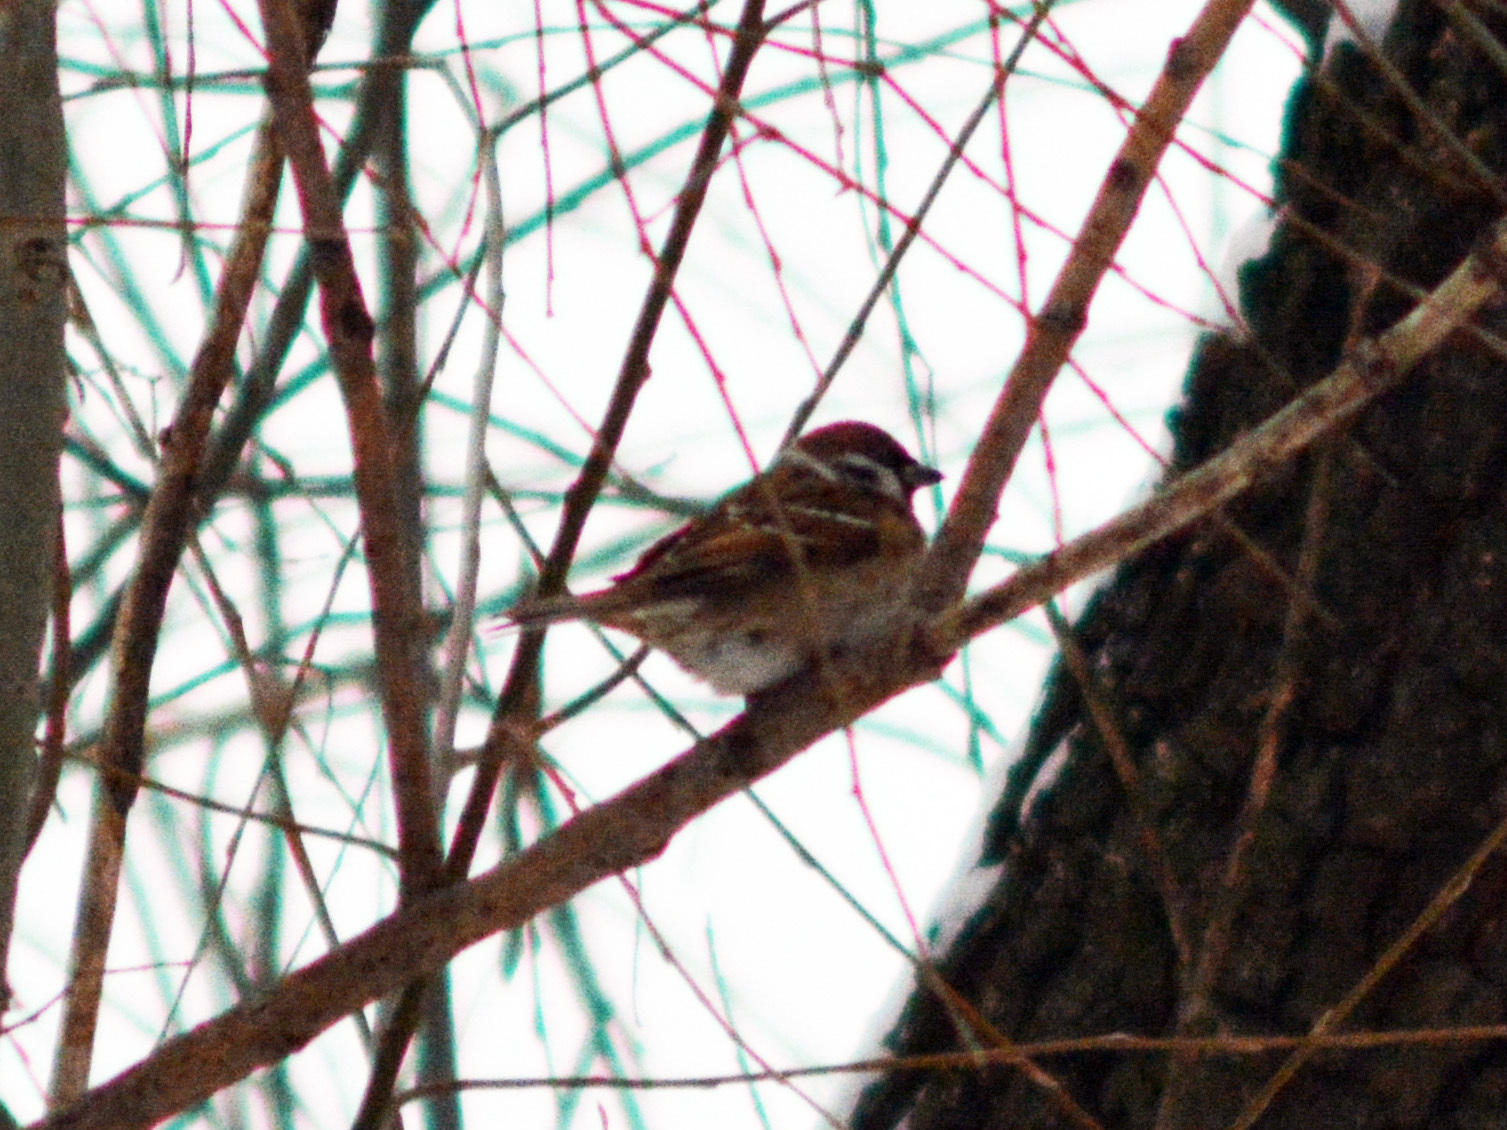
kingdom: Animalia
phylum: Chordata
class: Aves
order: Passeriformes
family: Passeridae
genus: Passer
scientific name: Passer montanus
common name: Eurasian tree sparrow
